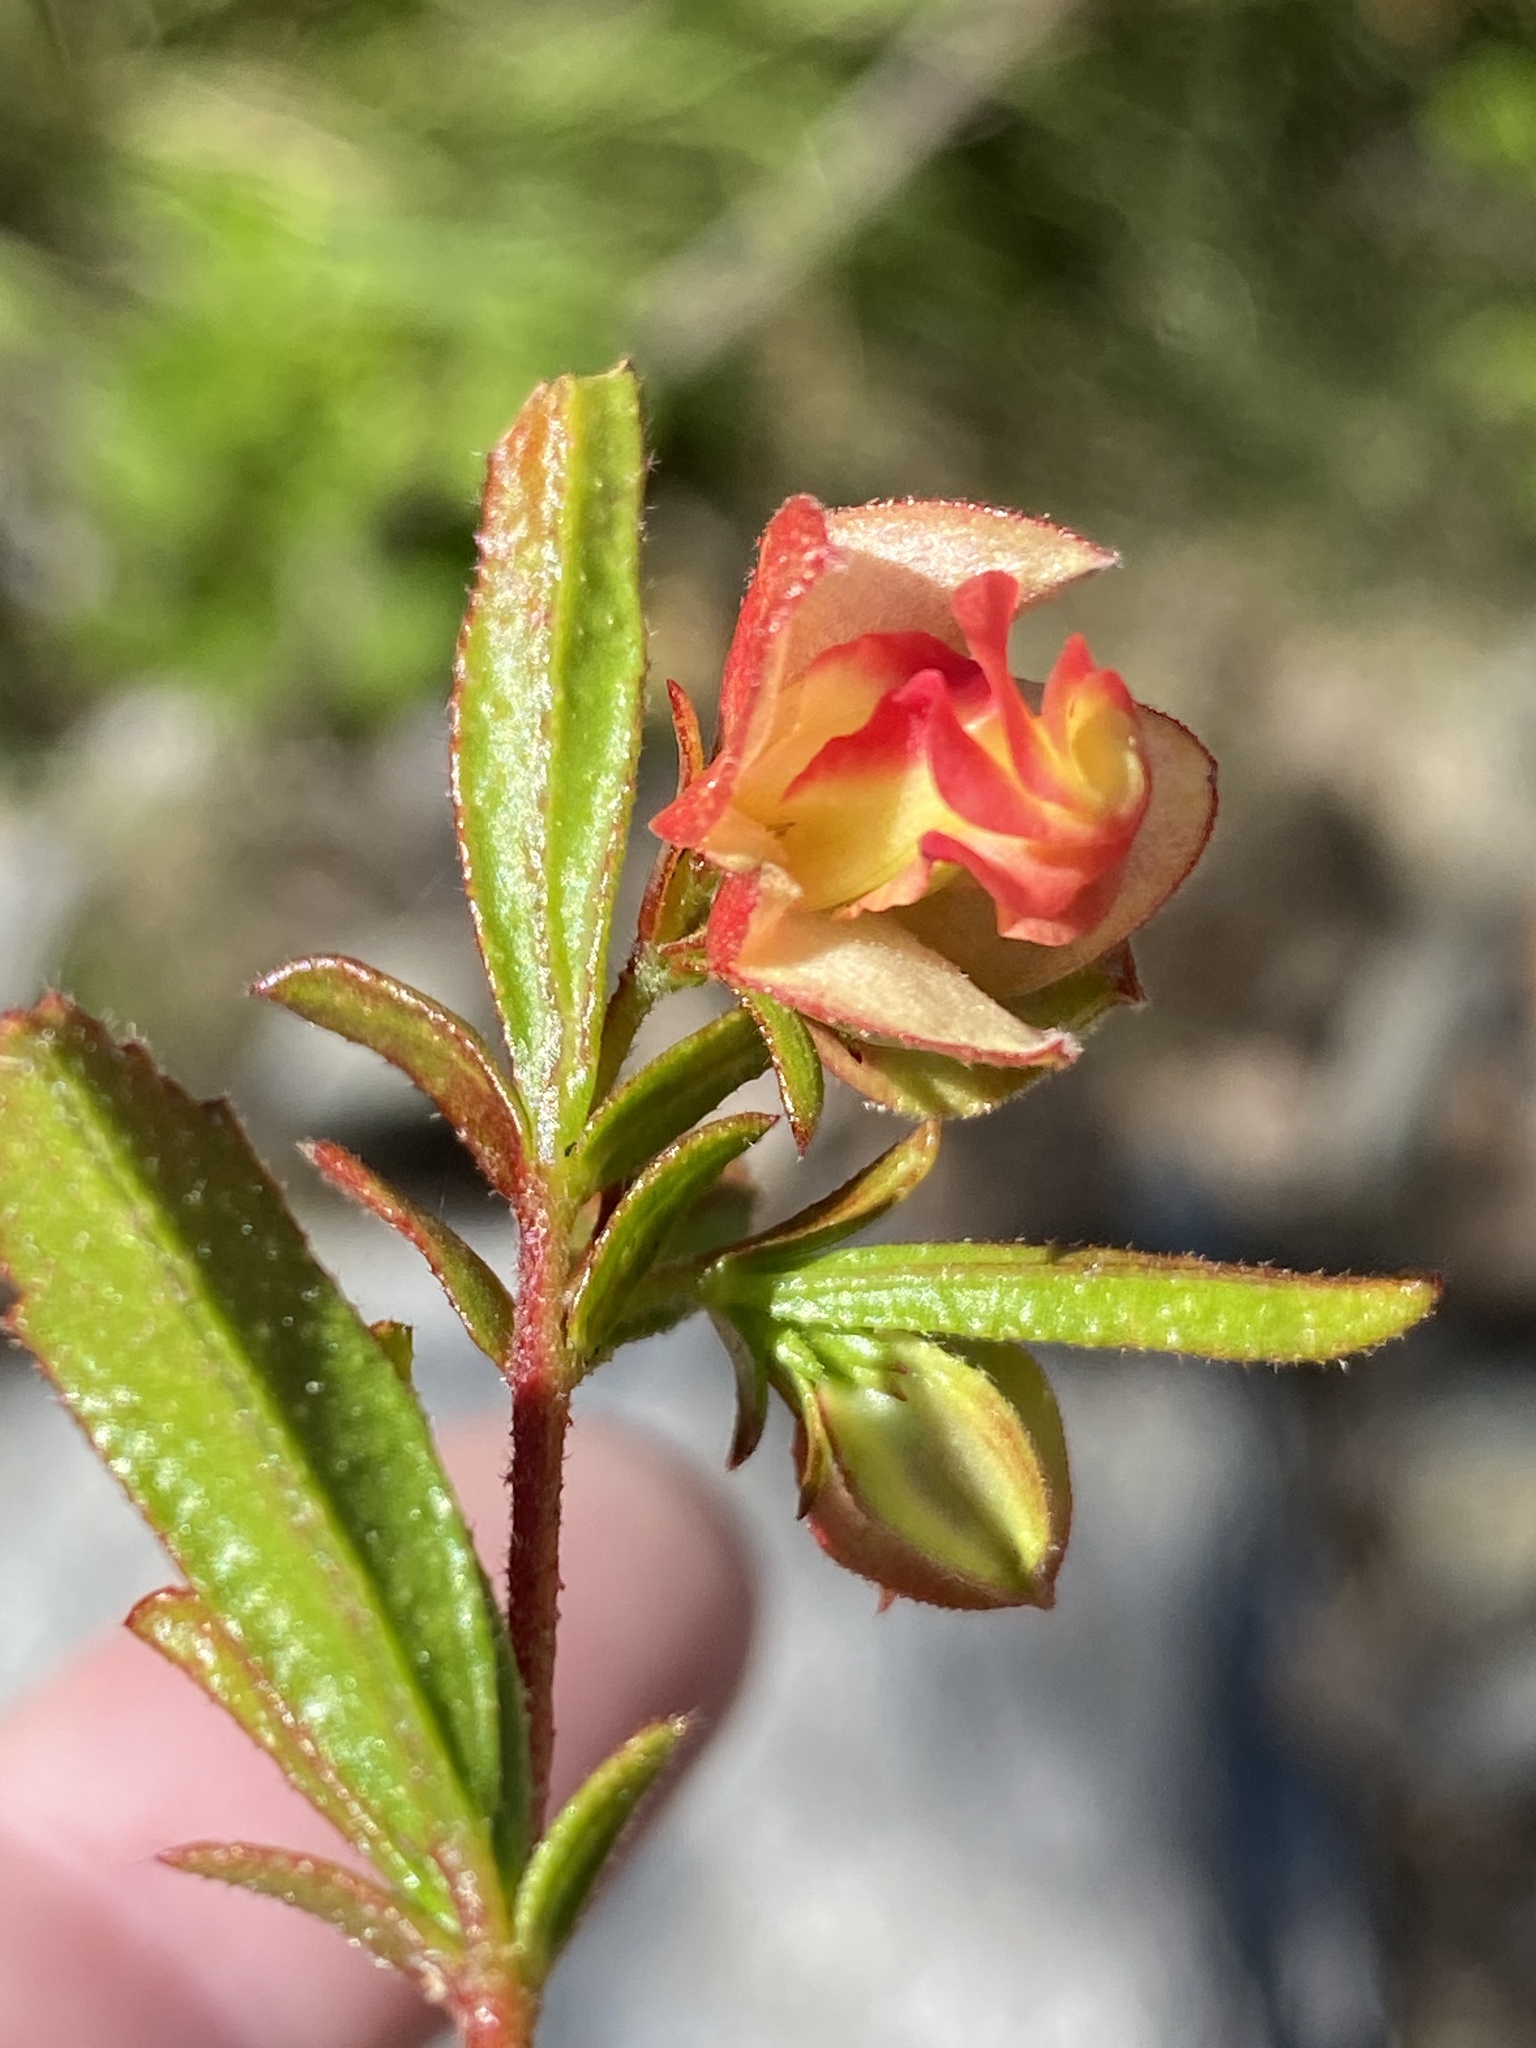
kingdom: Plantae
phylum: Tracheophyta
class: Magnoliopsida
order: Malvales
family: Malvaceae
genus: Hermannia
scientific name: Hermannia angularis
